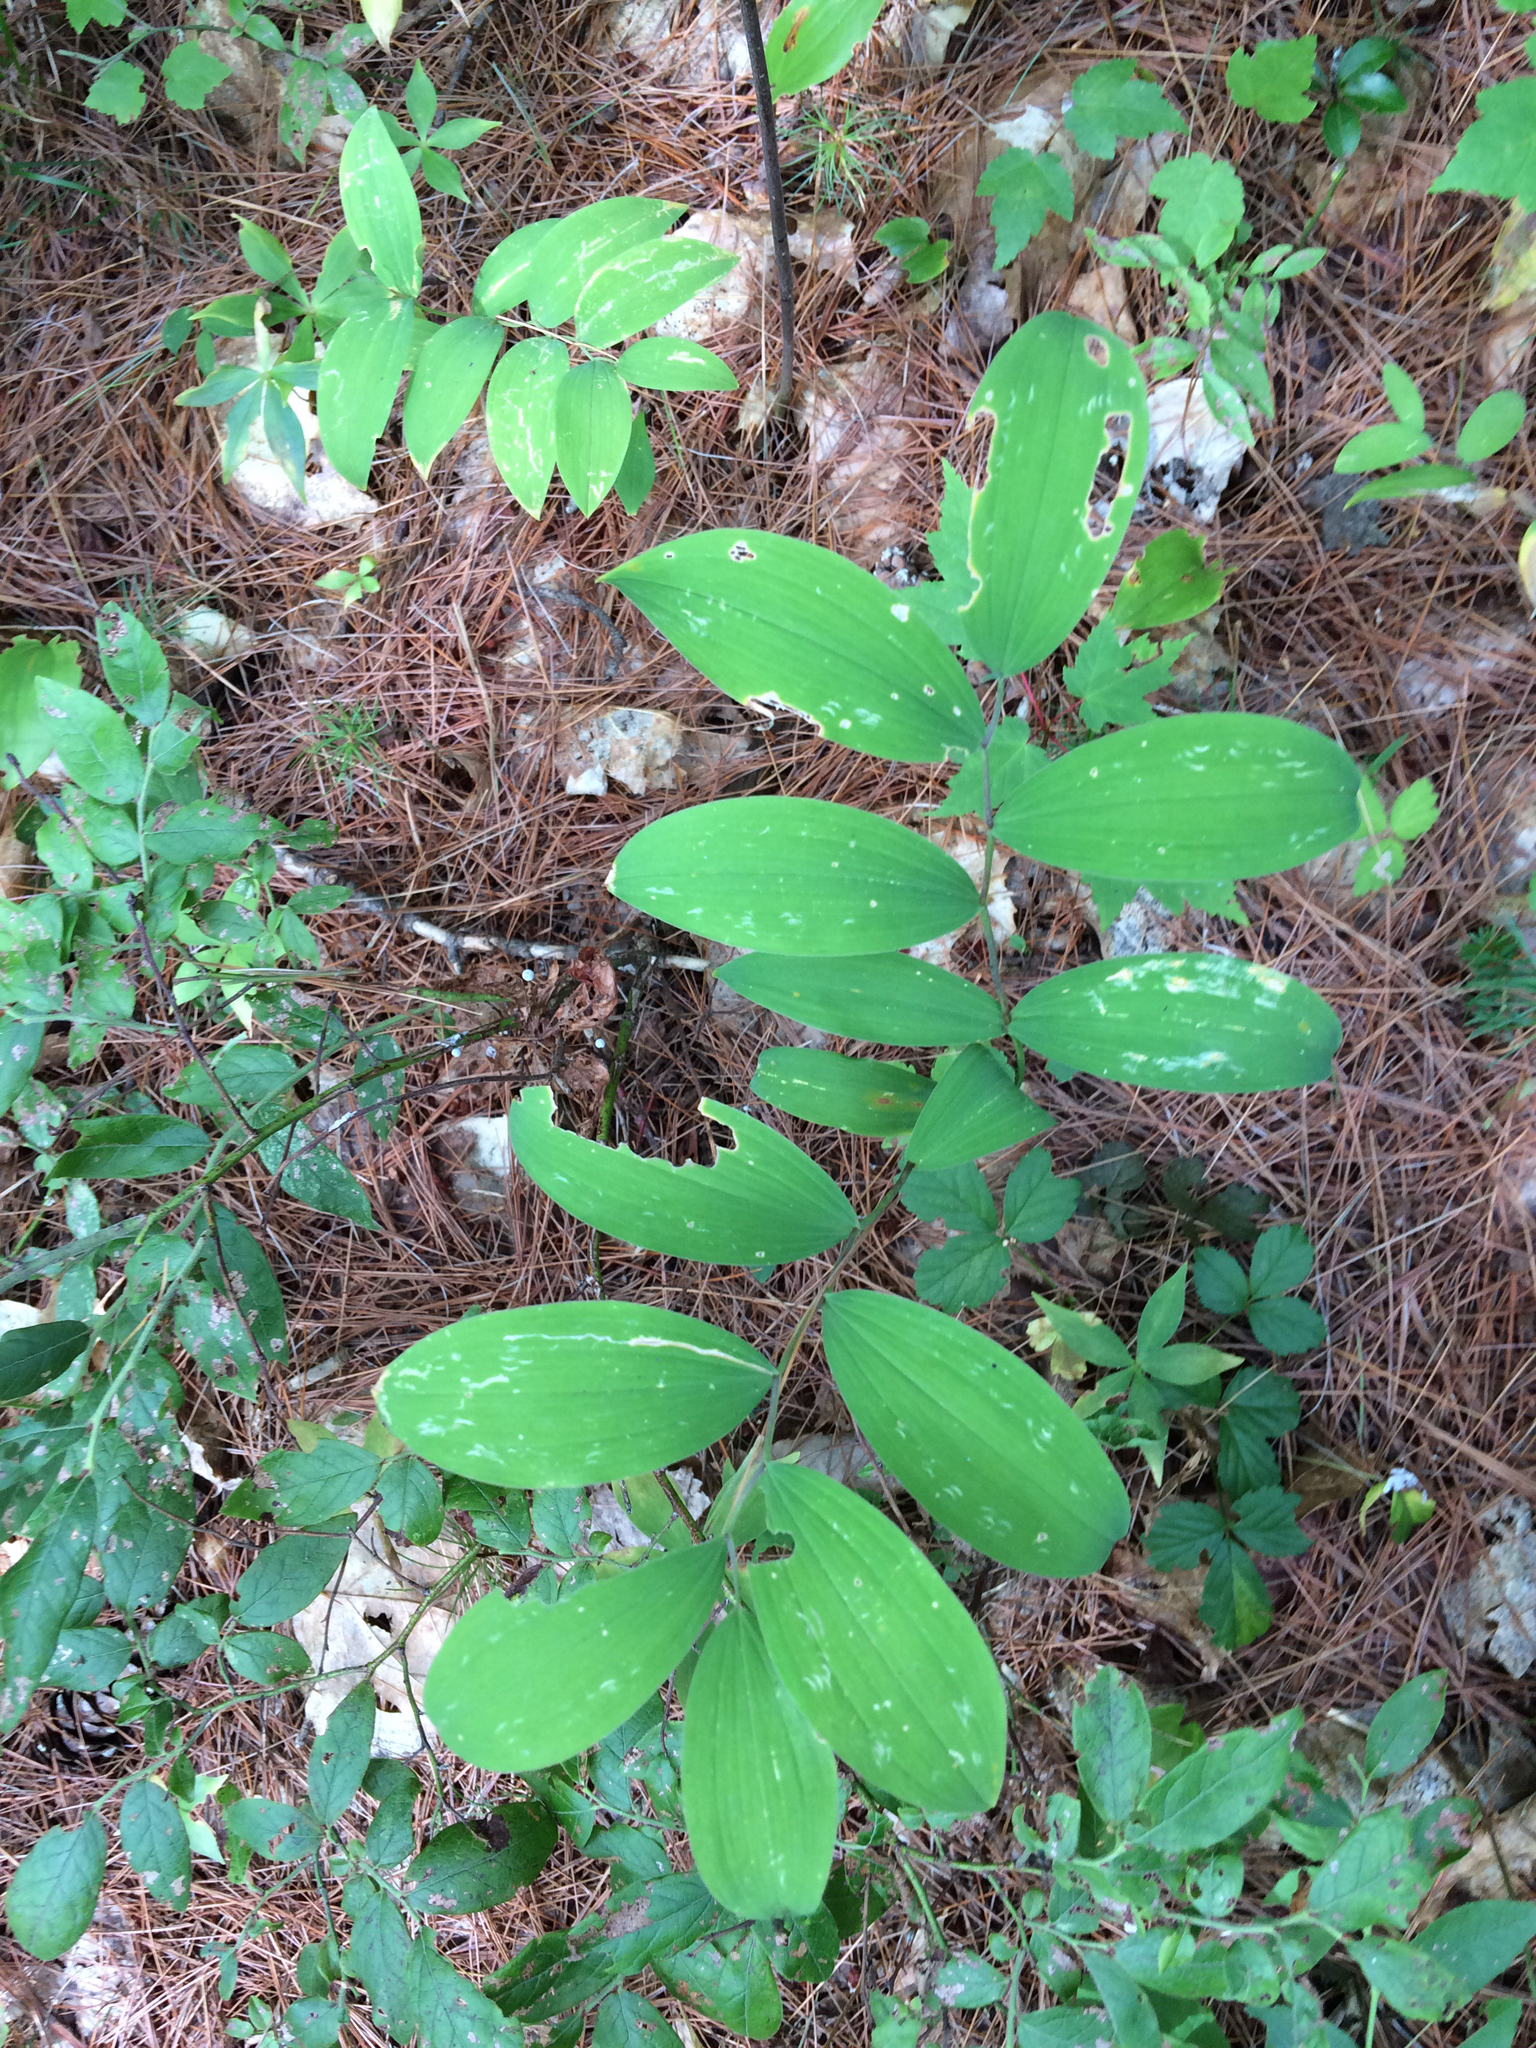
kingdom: Plantae
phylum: Tracheophyta
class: Liliopsida
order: Liliales
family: Colchicaceae
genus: Uvularia
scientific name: Uvularia sessilifolia
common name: Straw-lily
